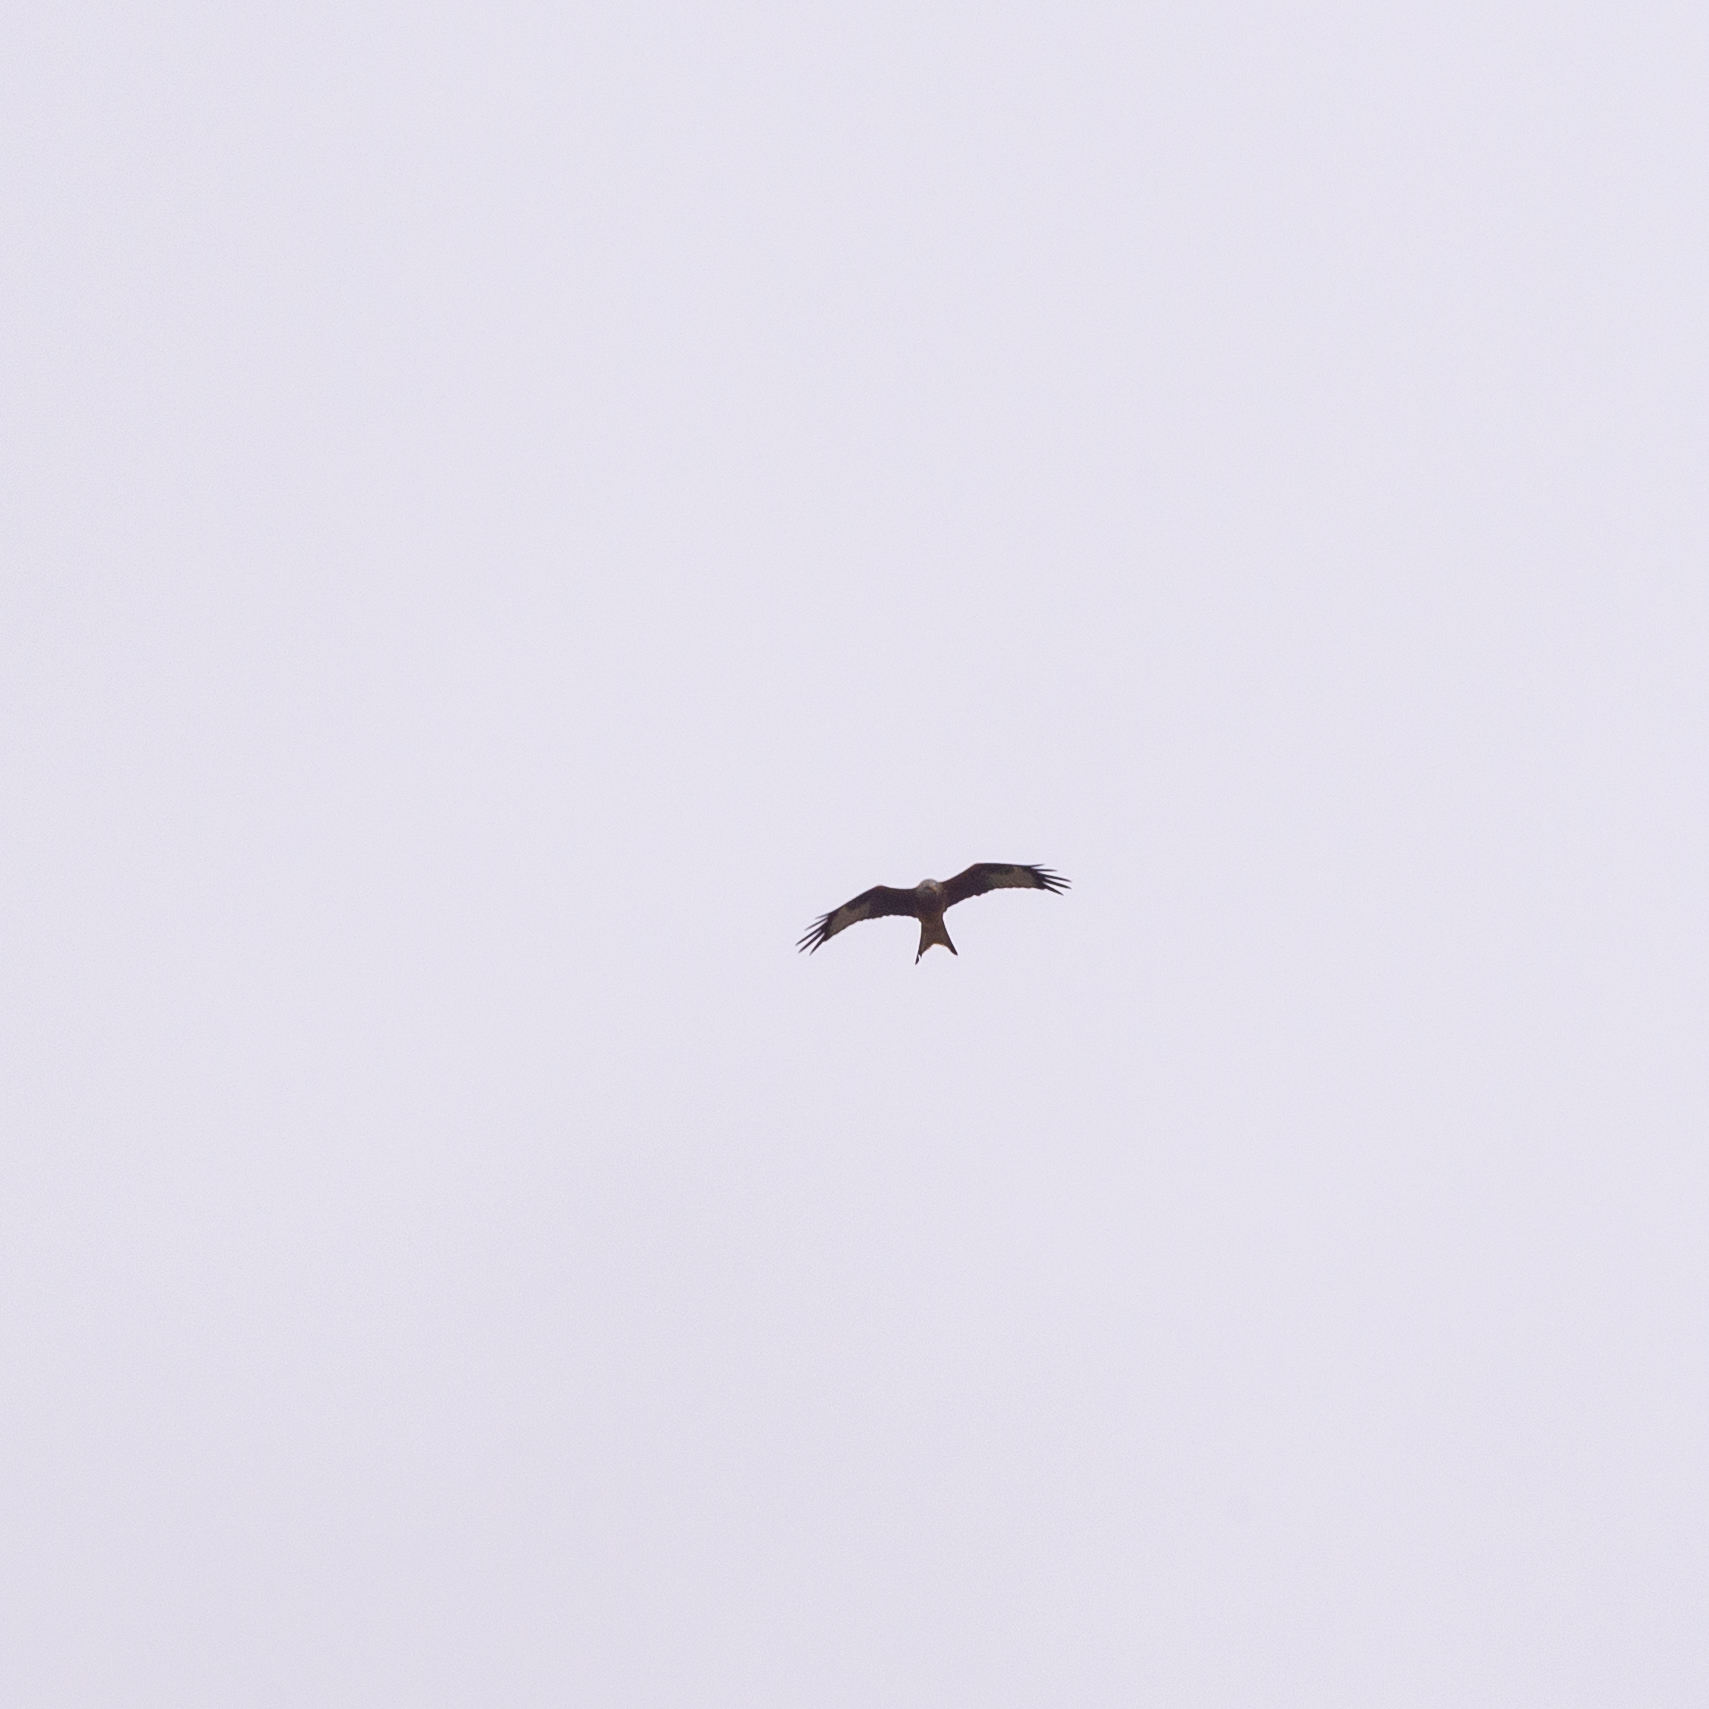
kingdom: Animalia
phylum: Chordata
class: Aves
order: Accipitriformes
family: Accipitridae
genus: Milvus
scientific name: Milvus milvus
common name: Red kite
